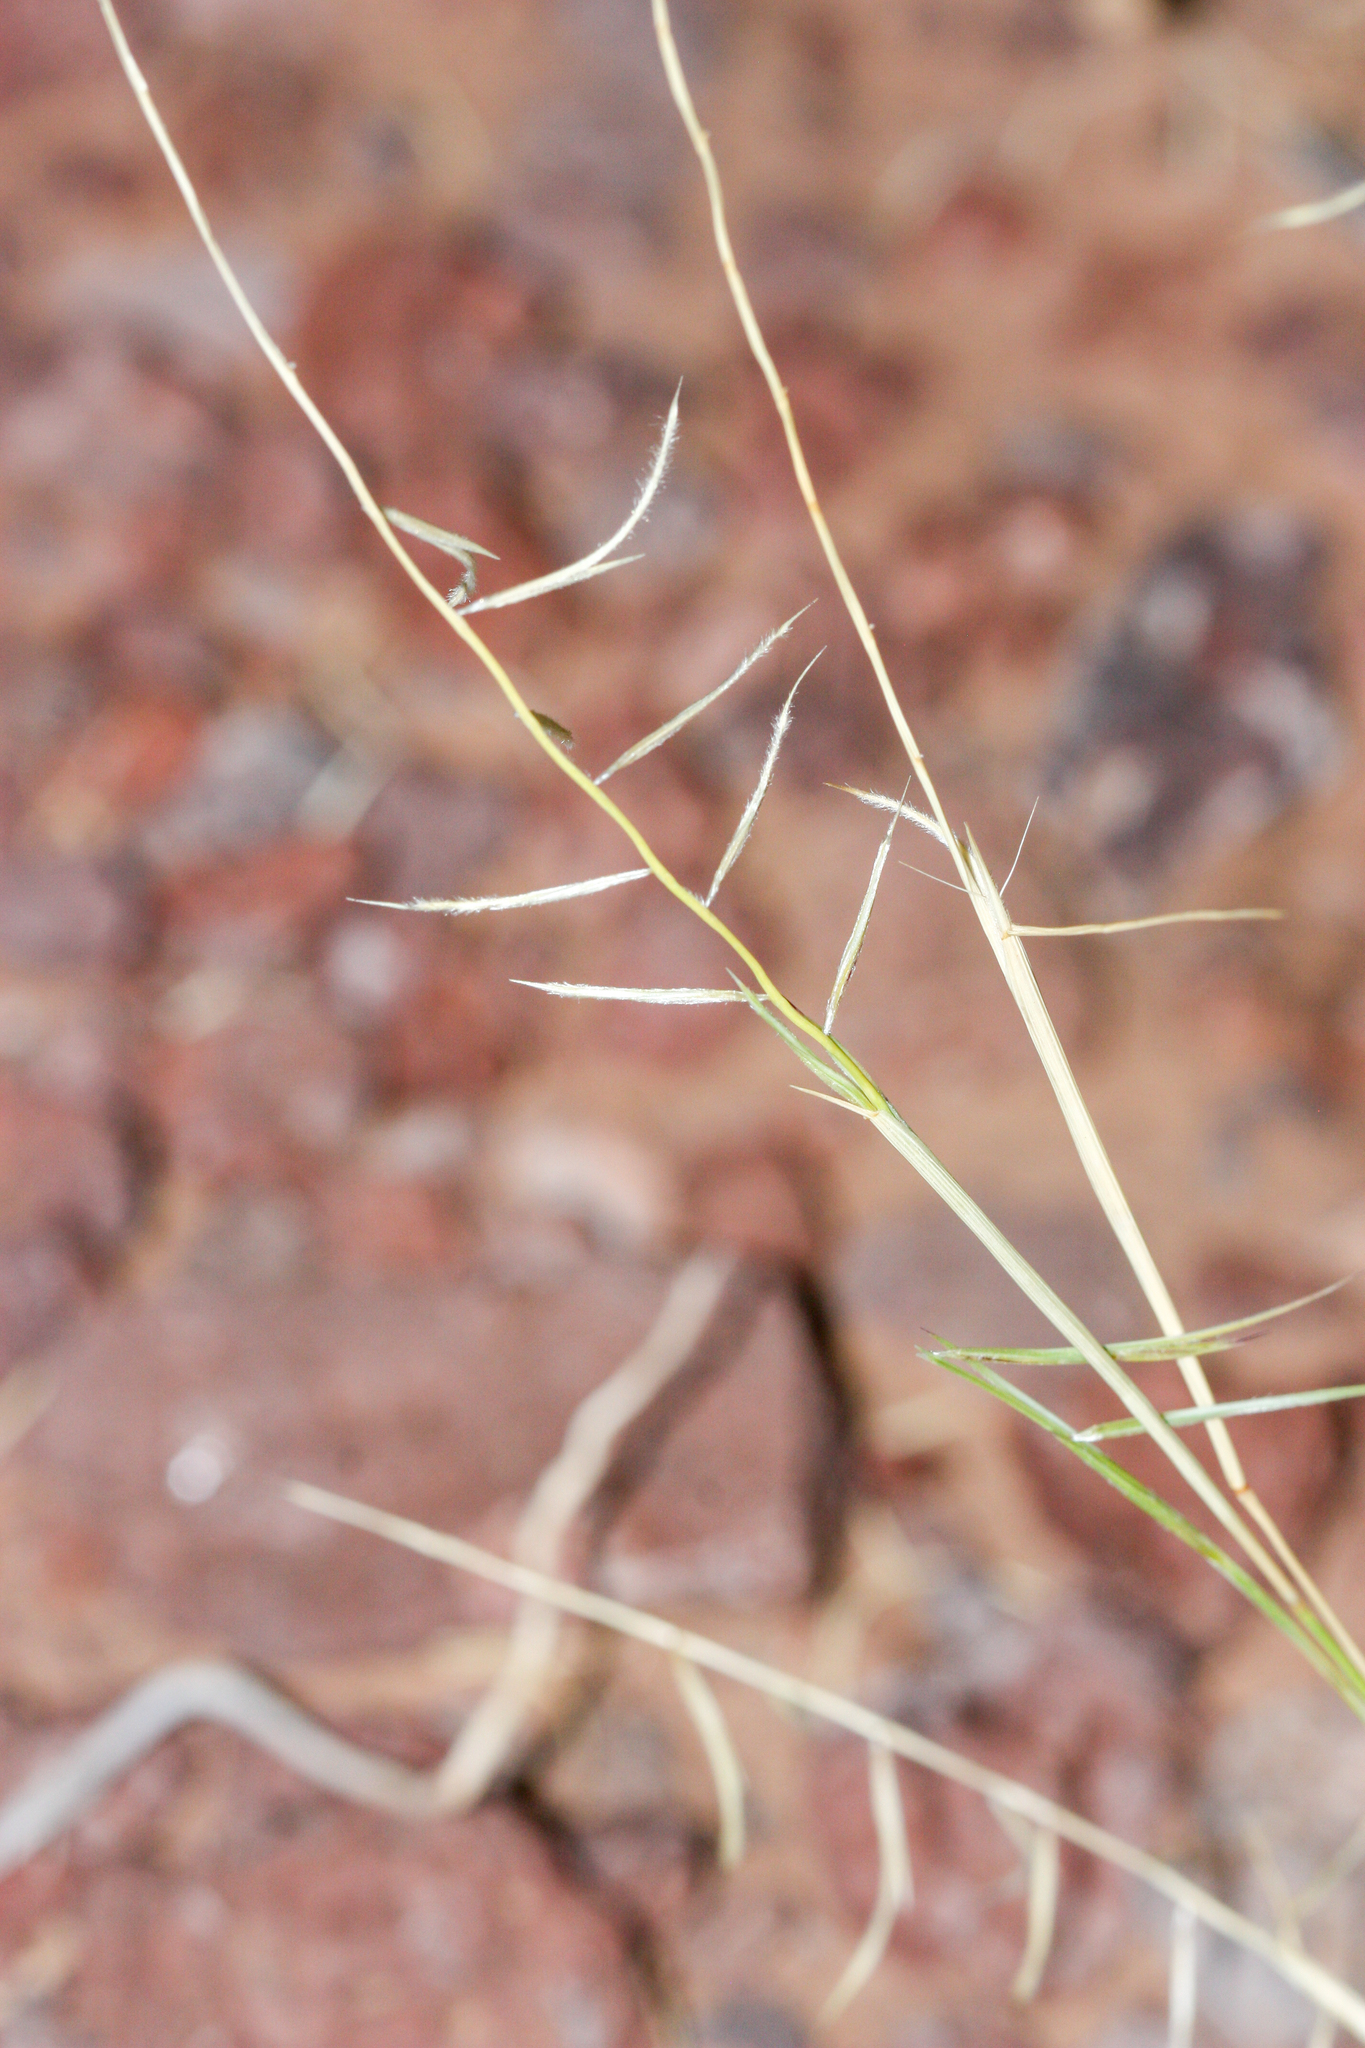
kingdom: Plantae
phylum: Tracheophyta
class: Liliopsida
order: Poales
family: Poaceae
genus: Bouteloua
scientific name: Bouteloua aristidoides
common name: Needle grama
